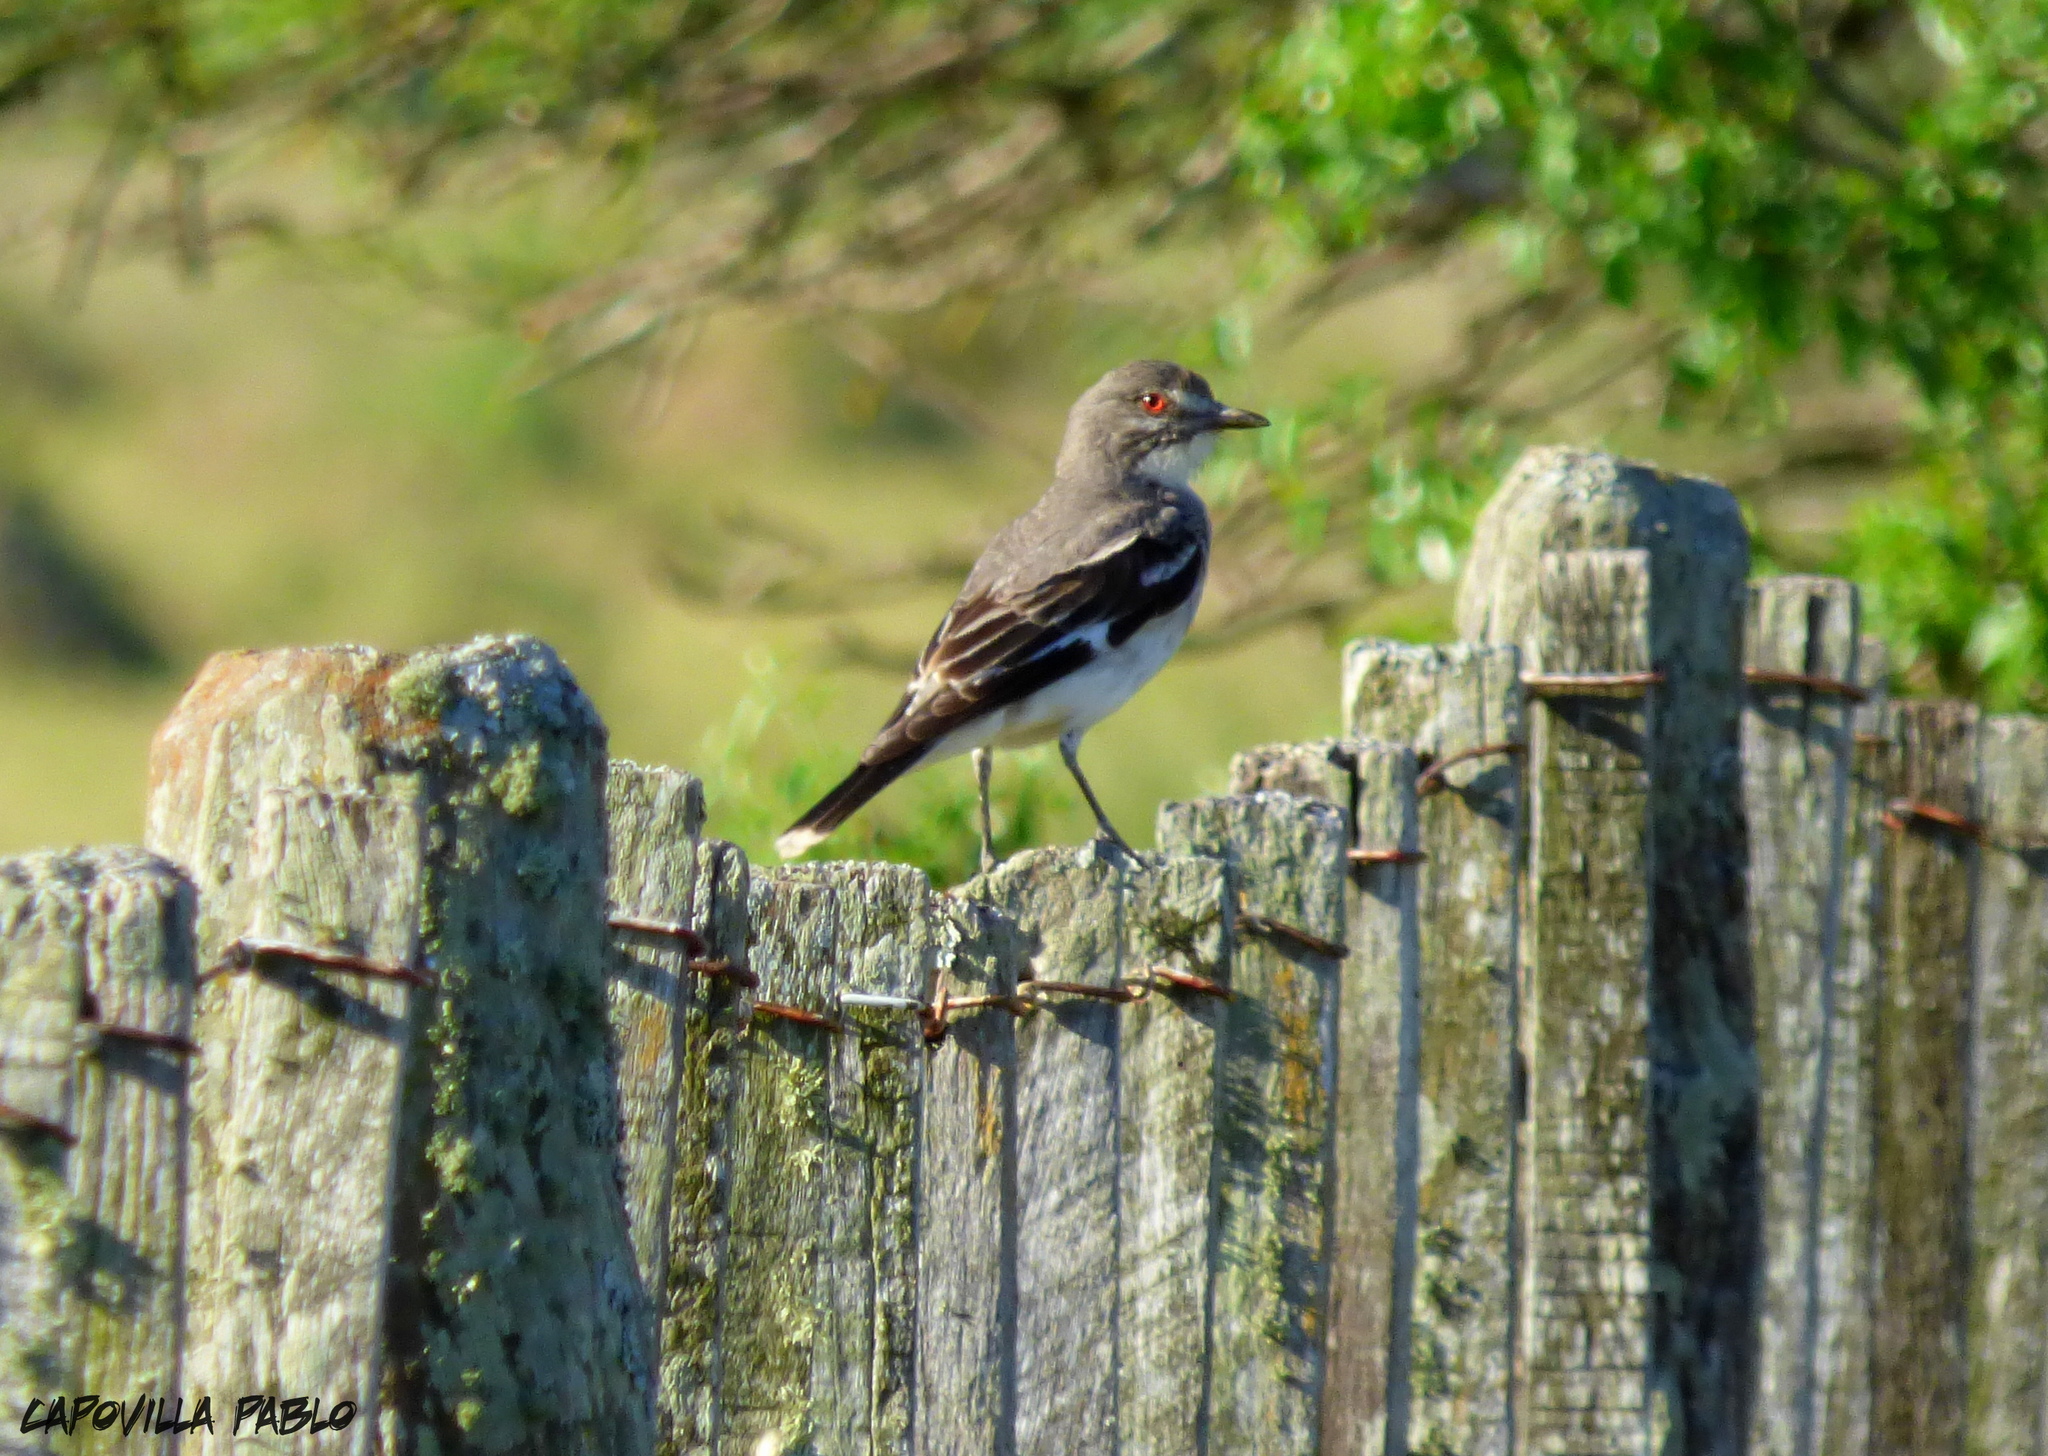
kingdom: Animalia
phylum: Chordata
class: Aves
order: Passeriformes
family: Tyrannidae
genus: Xolmis
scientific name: Xolmis cinereus
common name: Grey monjita
